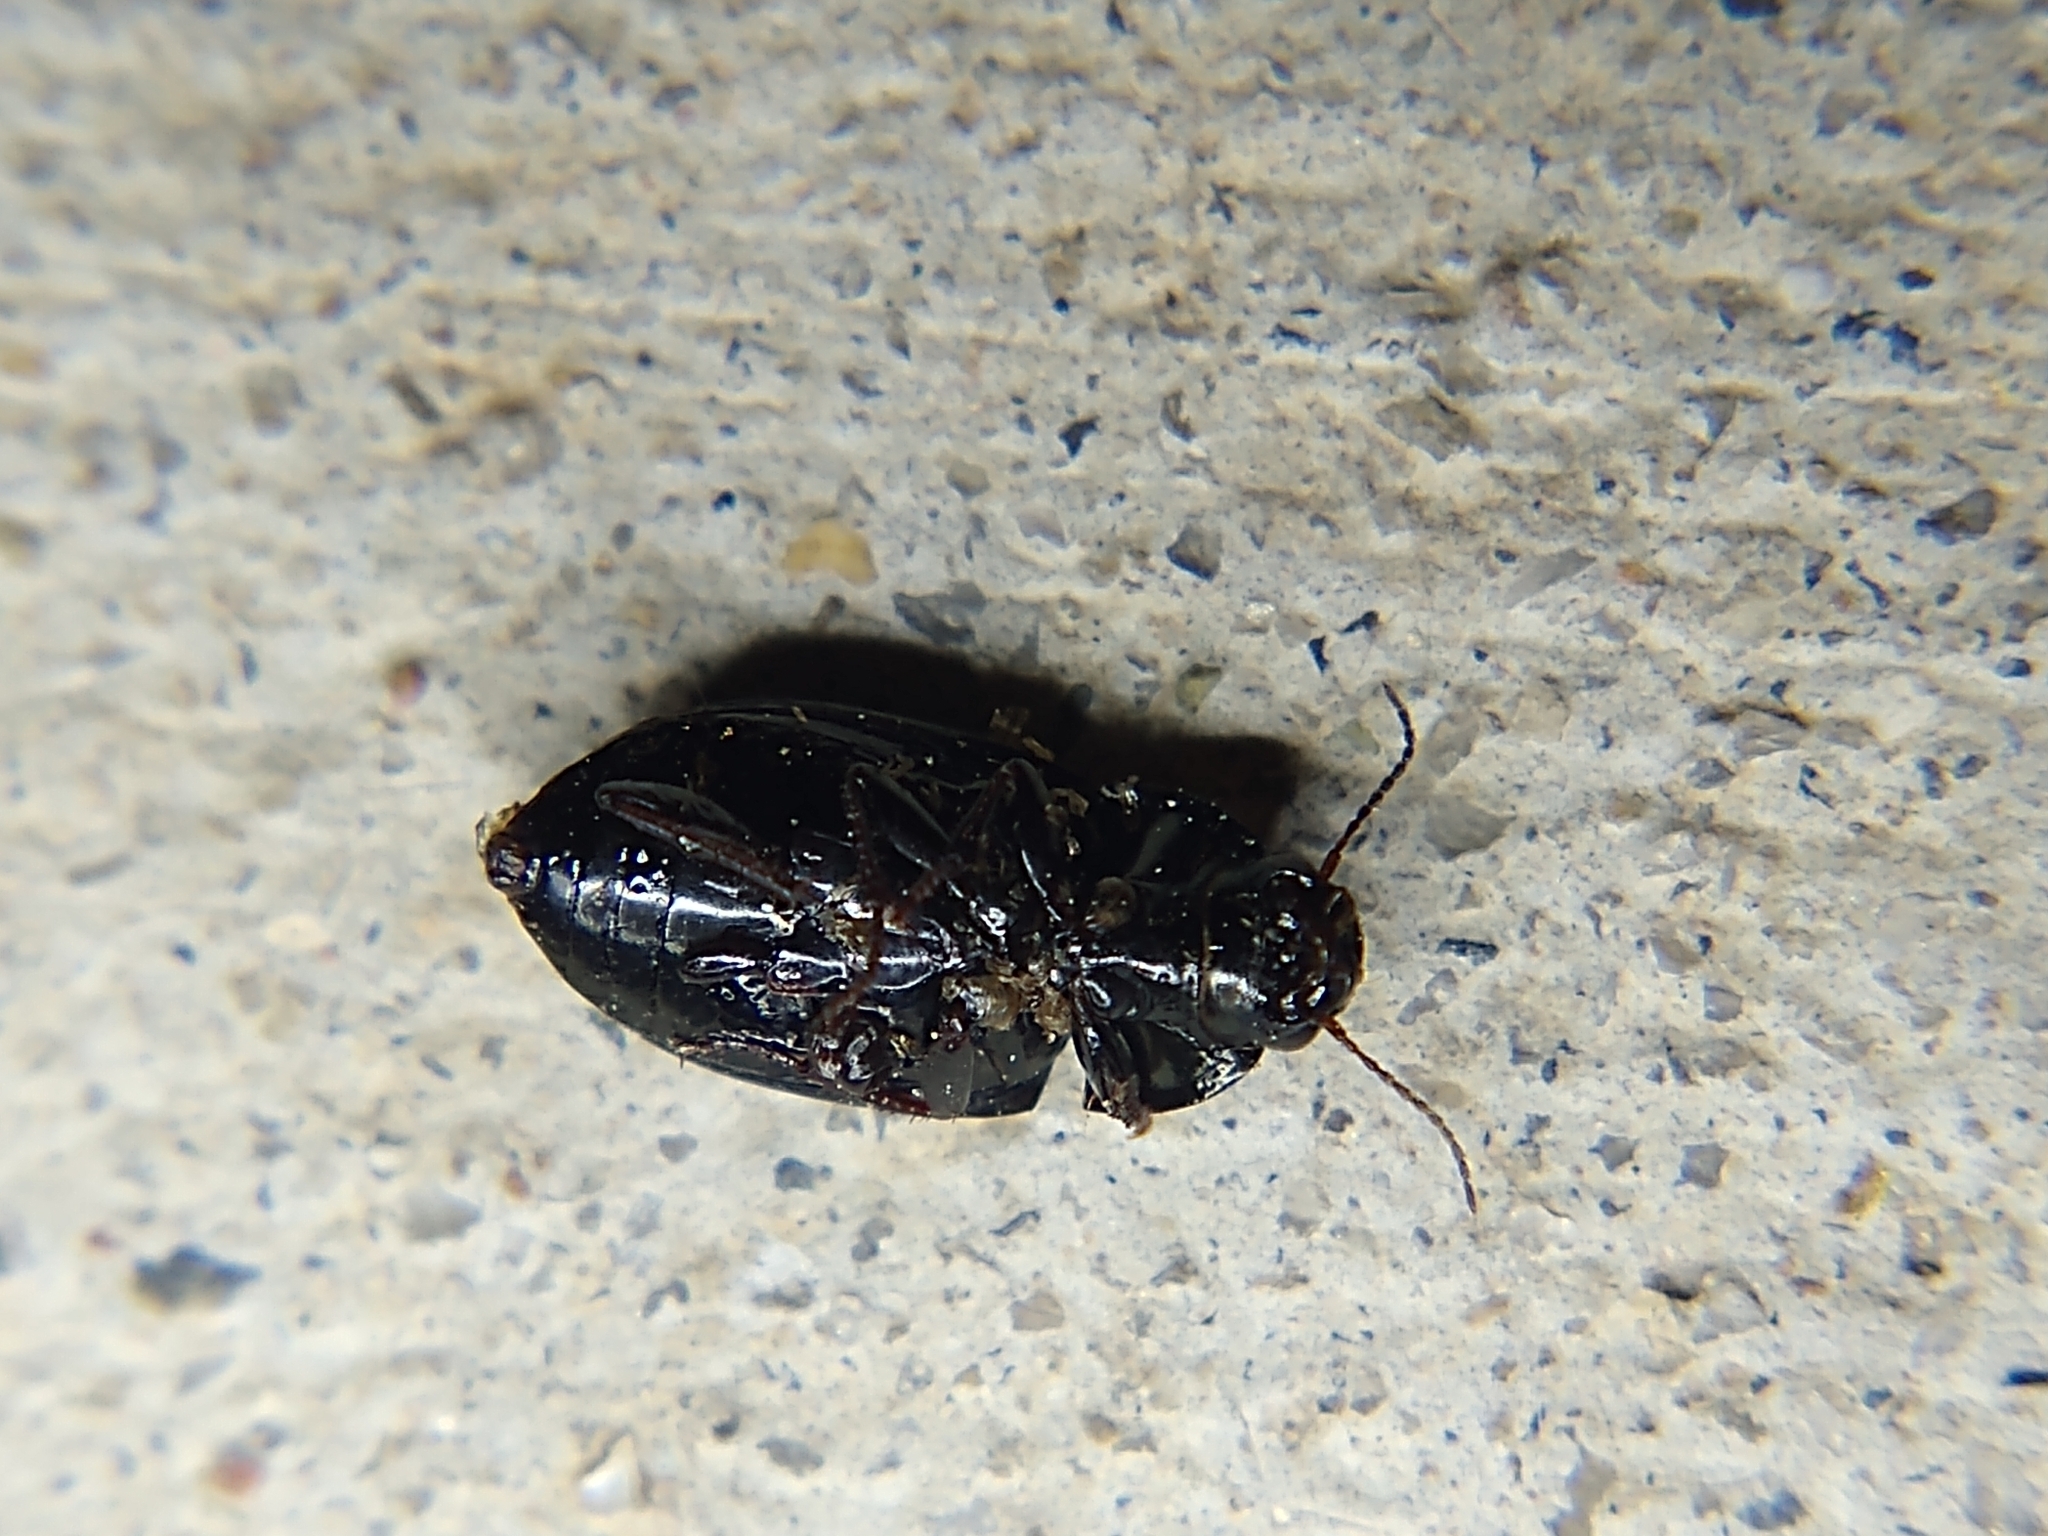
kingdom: Animalia
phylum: Arthropoda
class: Insecta
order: Coleoptera
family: Carabidae
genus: Amara
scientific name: Amara
